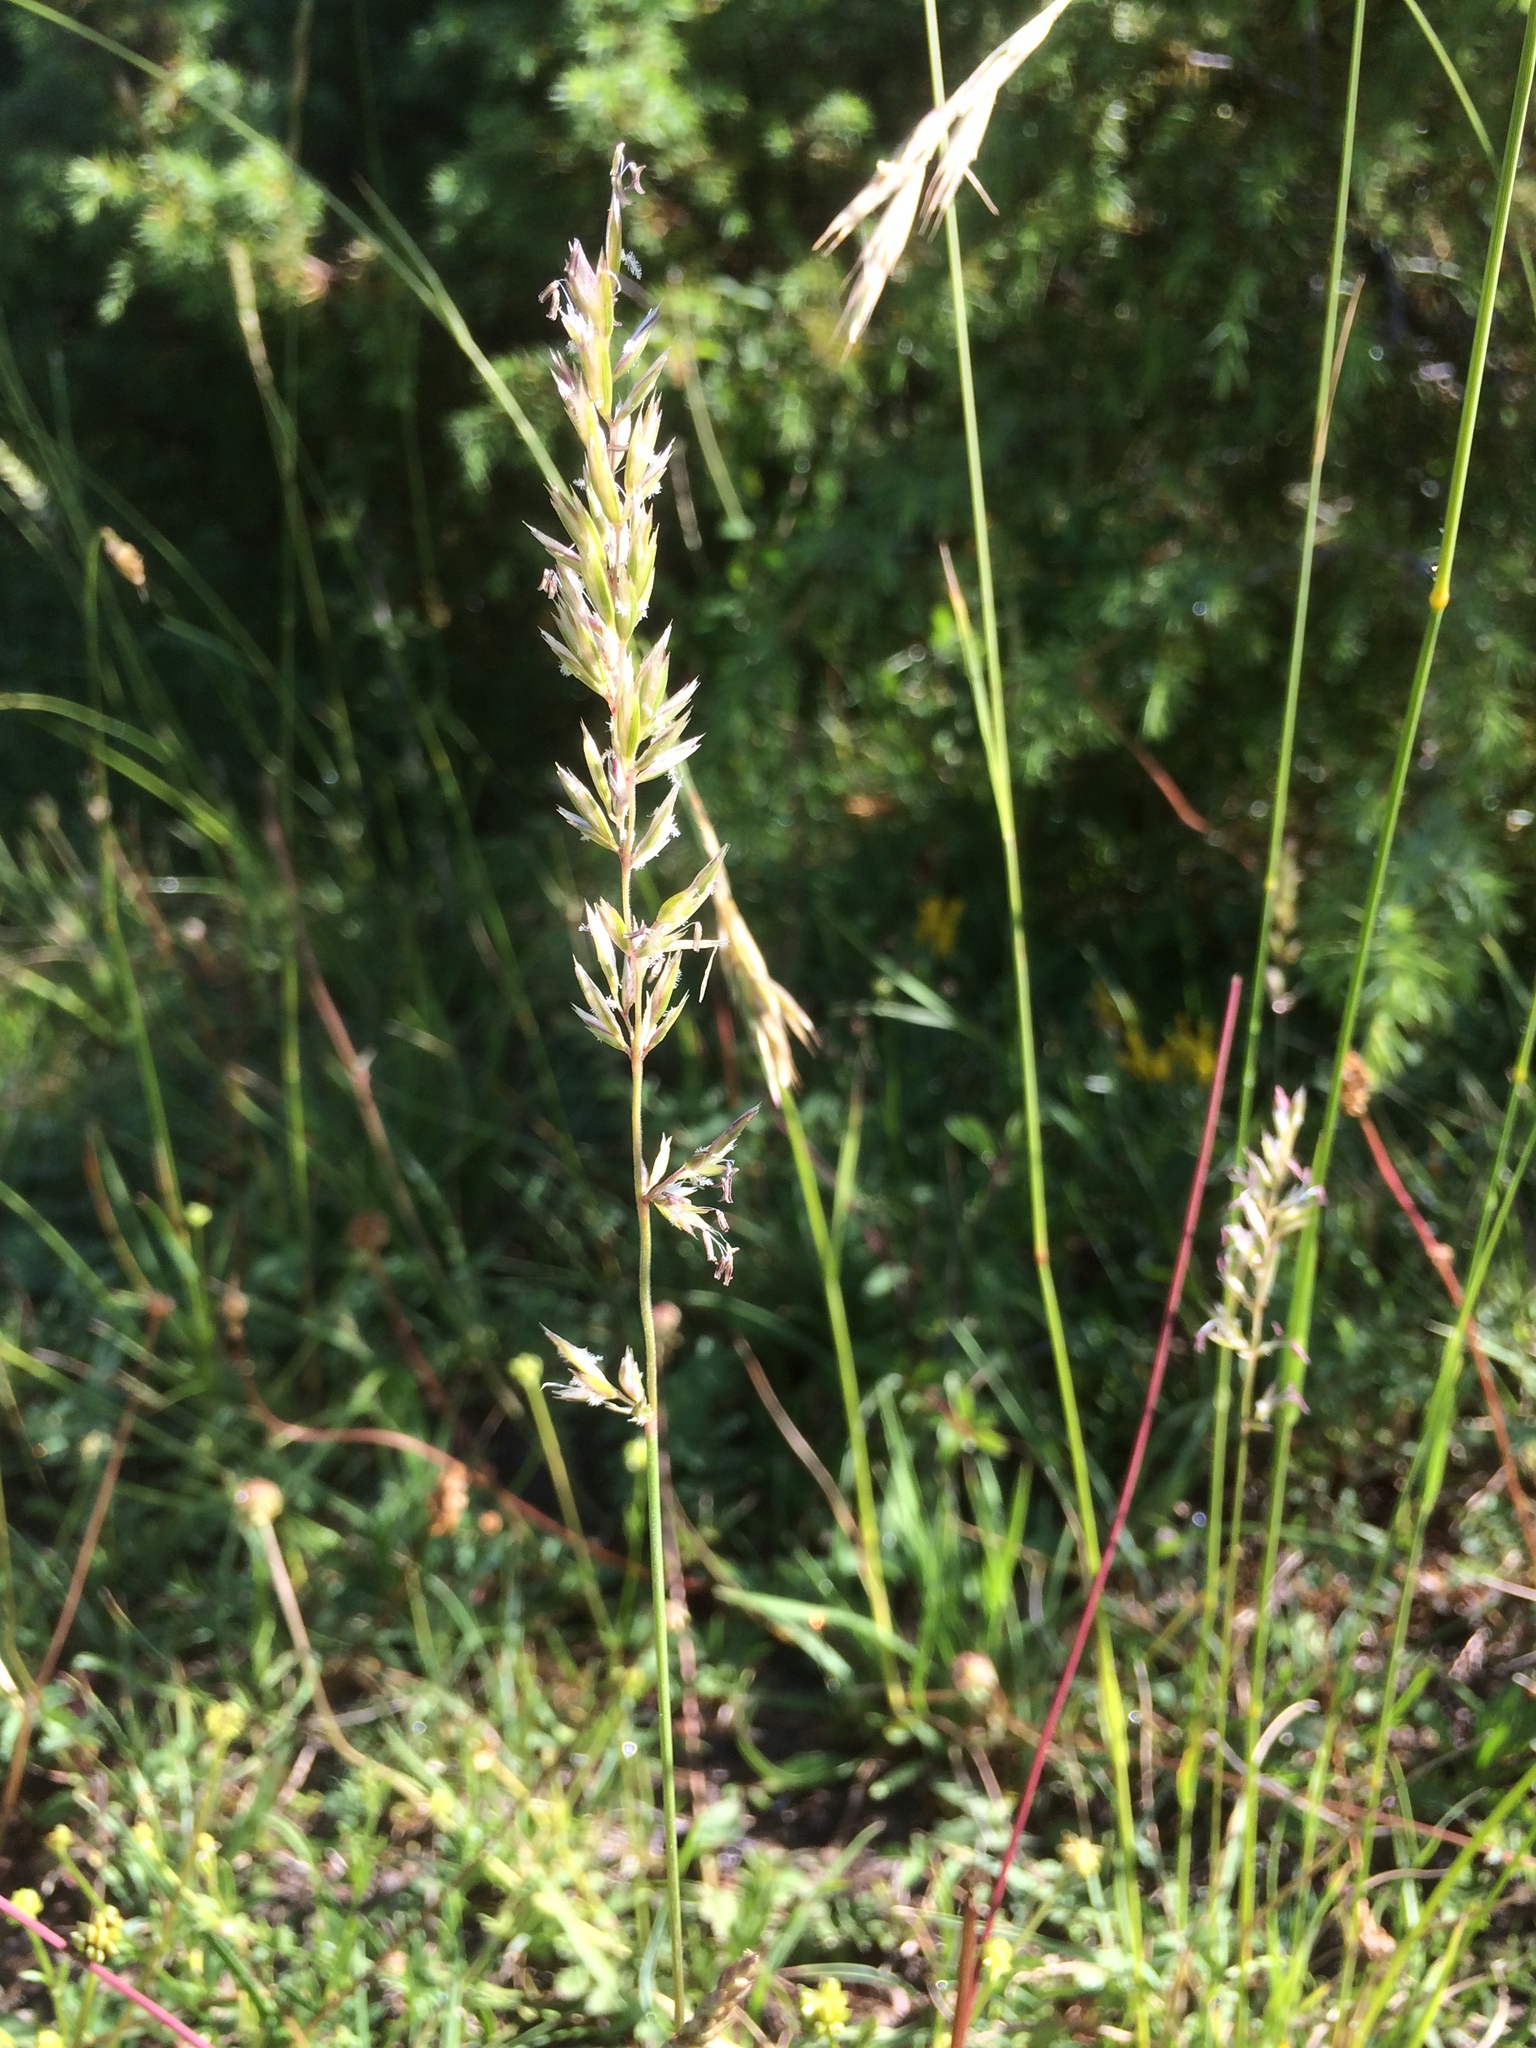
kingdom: Plantae
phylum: Tracheophyta
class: Liliopsida
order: Poales
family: Poaceae
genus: Koeleria
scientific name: Koeleria pyramidata
